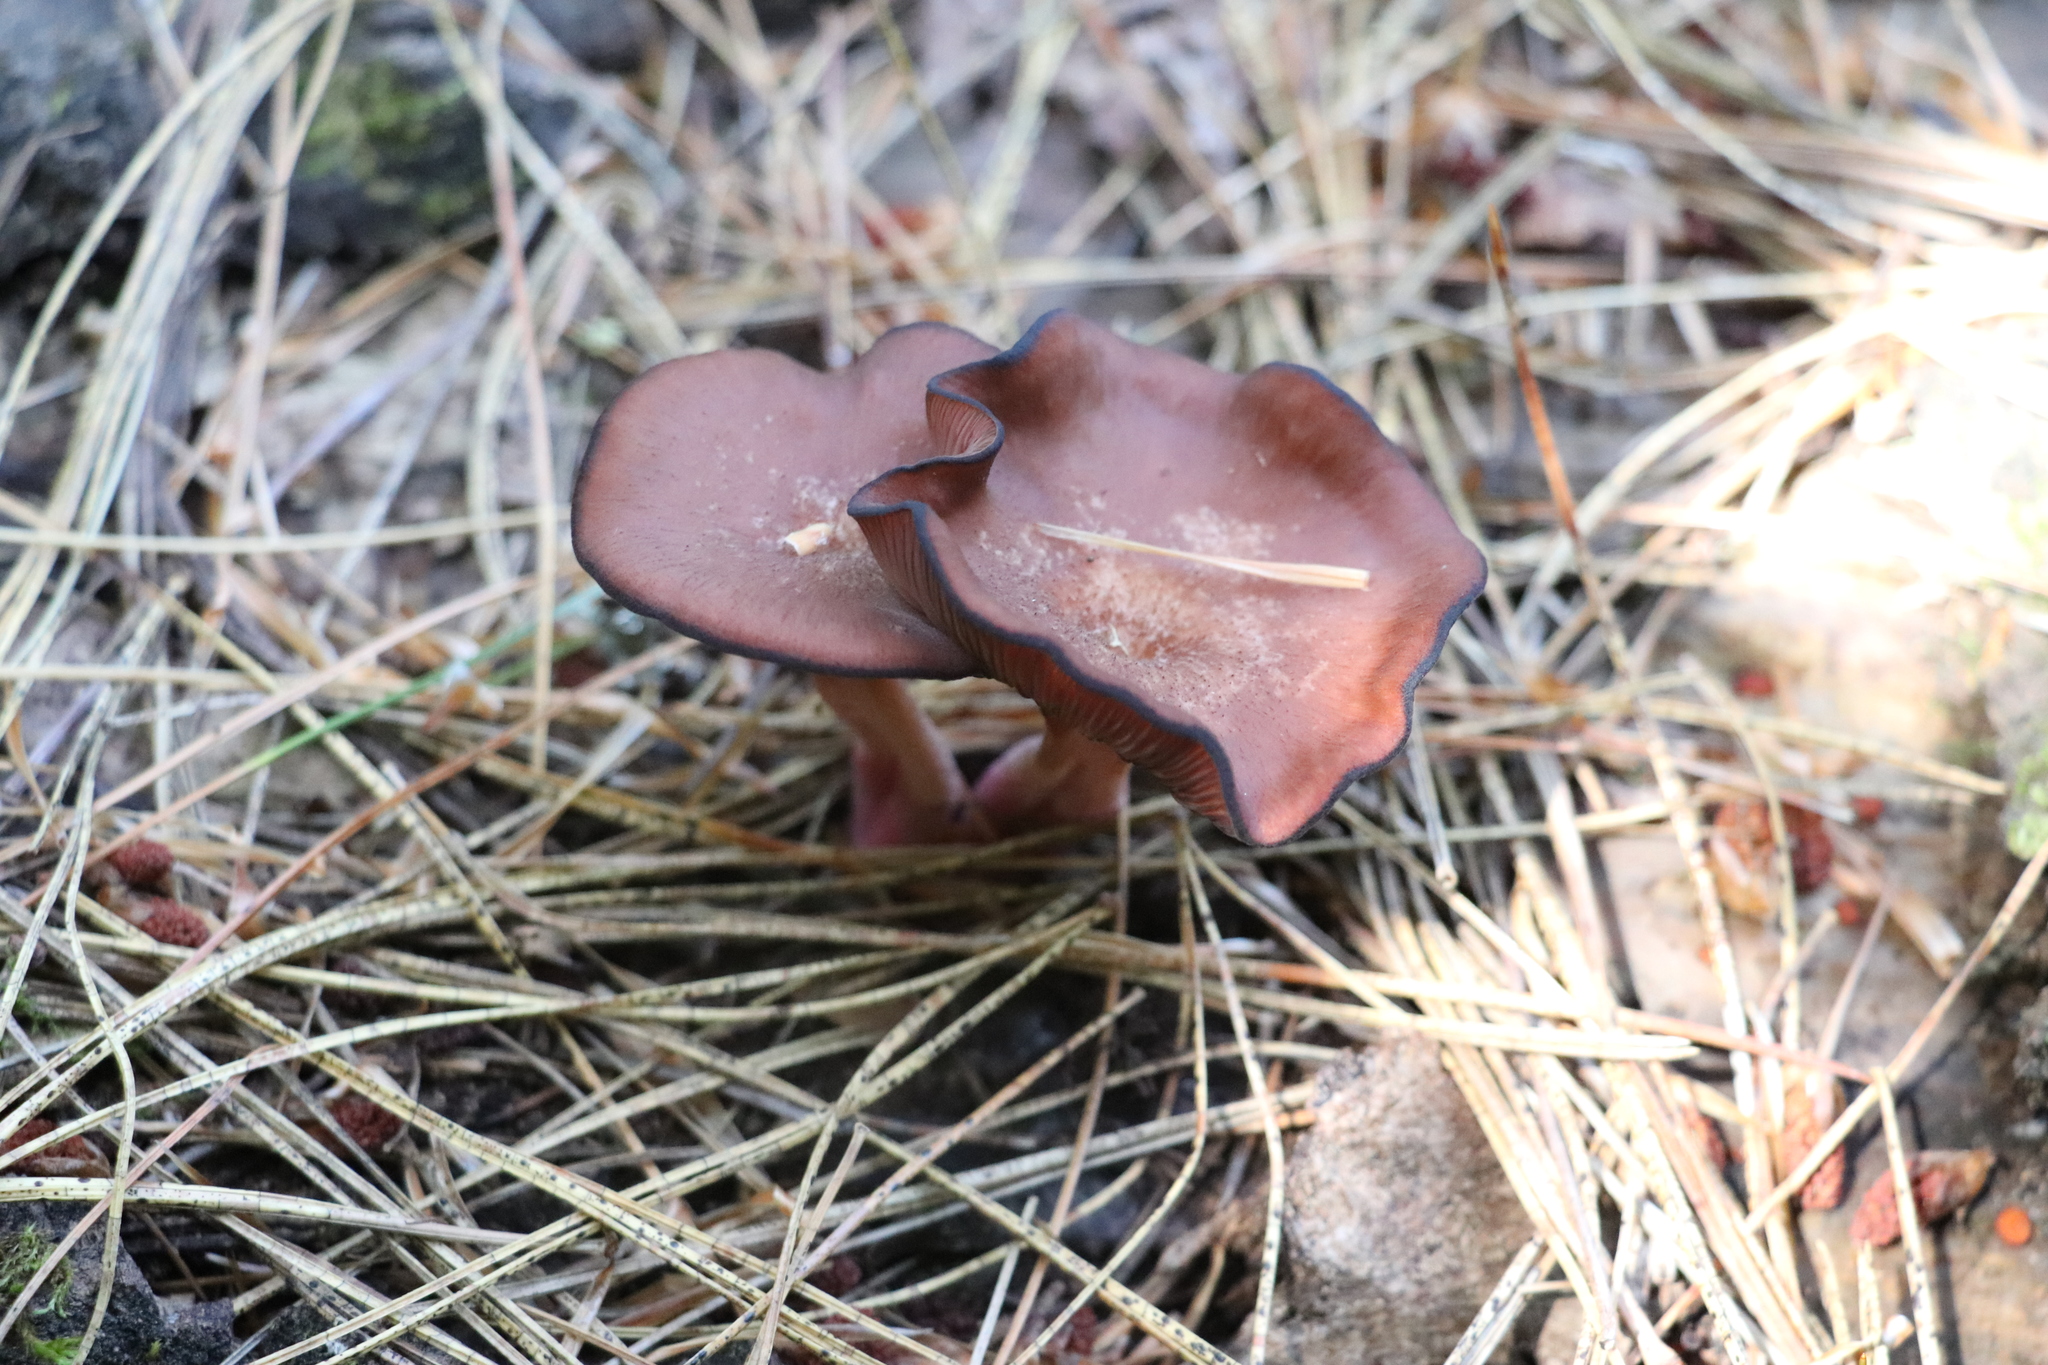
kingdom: Fungi
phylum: Basidiomycota
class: Agaricomycetes
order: Agaricales
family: Hygrophoraceae
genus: Arrhenia
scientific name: Arrhenia discorosea
